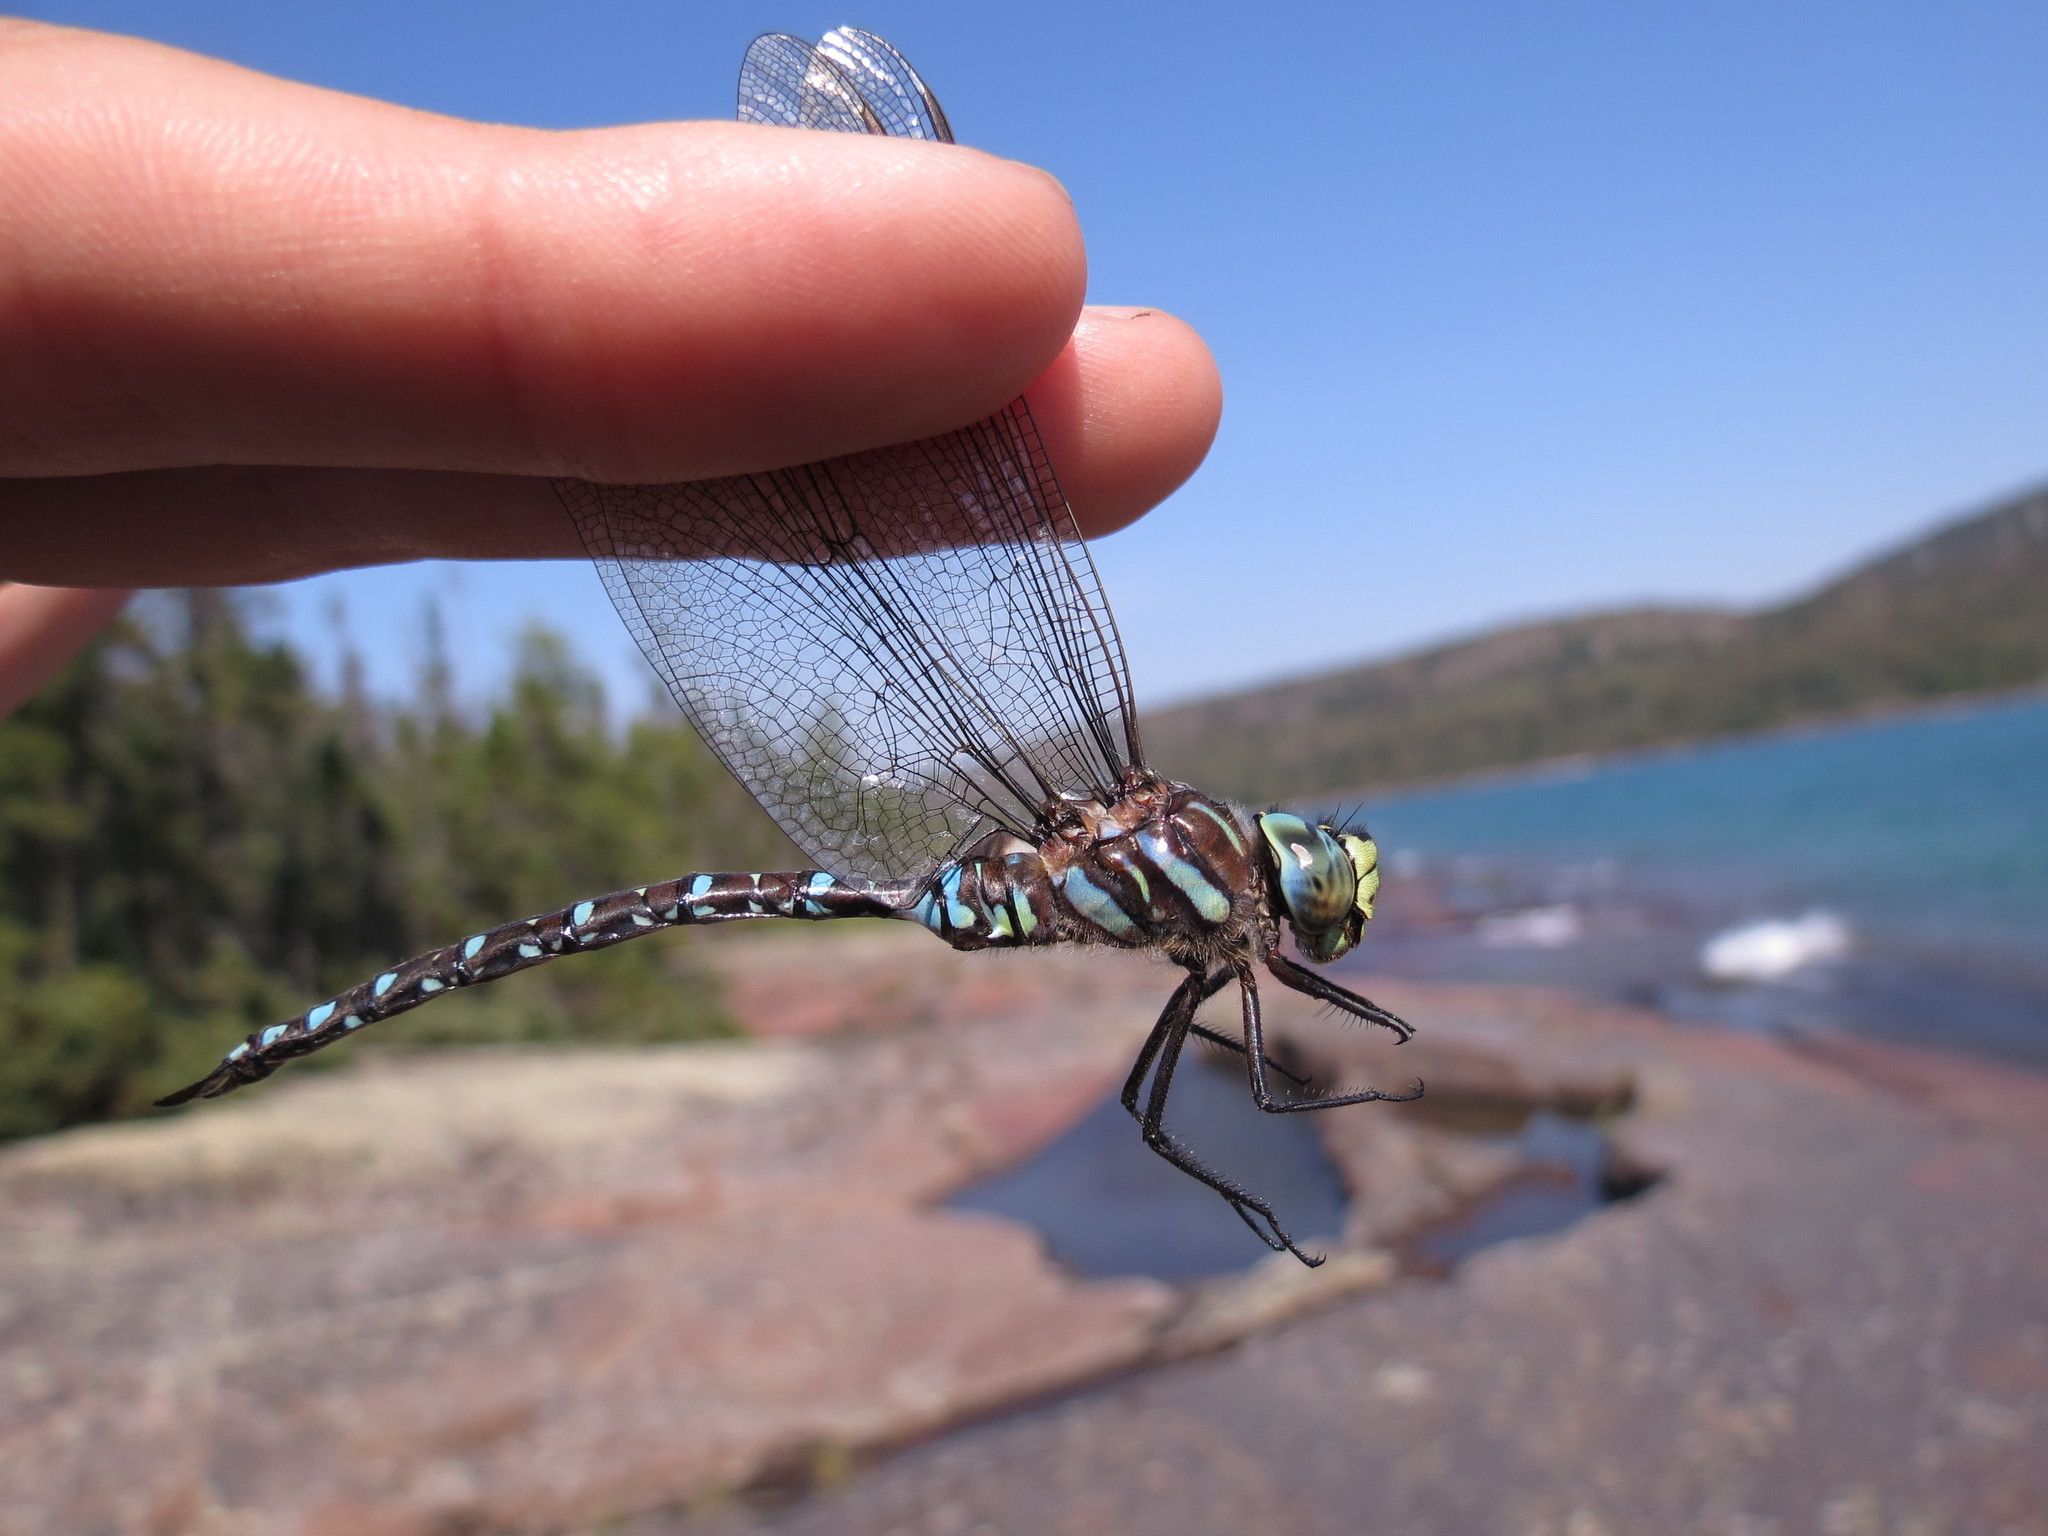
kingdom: Animalia
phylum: Arthropoda
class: Insecta
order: Odonata
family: Aeshnidae
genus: Aeshna
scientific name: Aeshna juncea
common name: Moorland hawker
